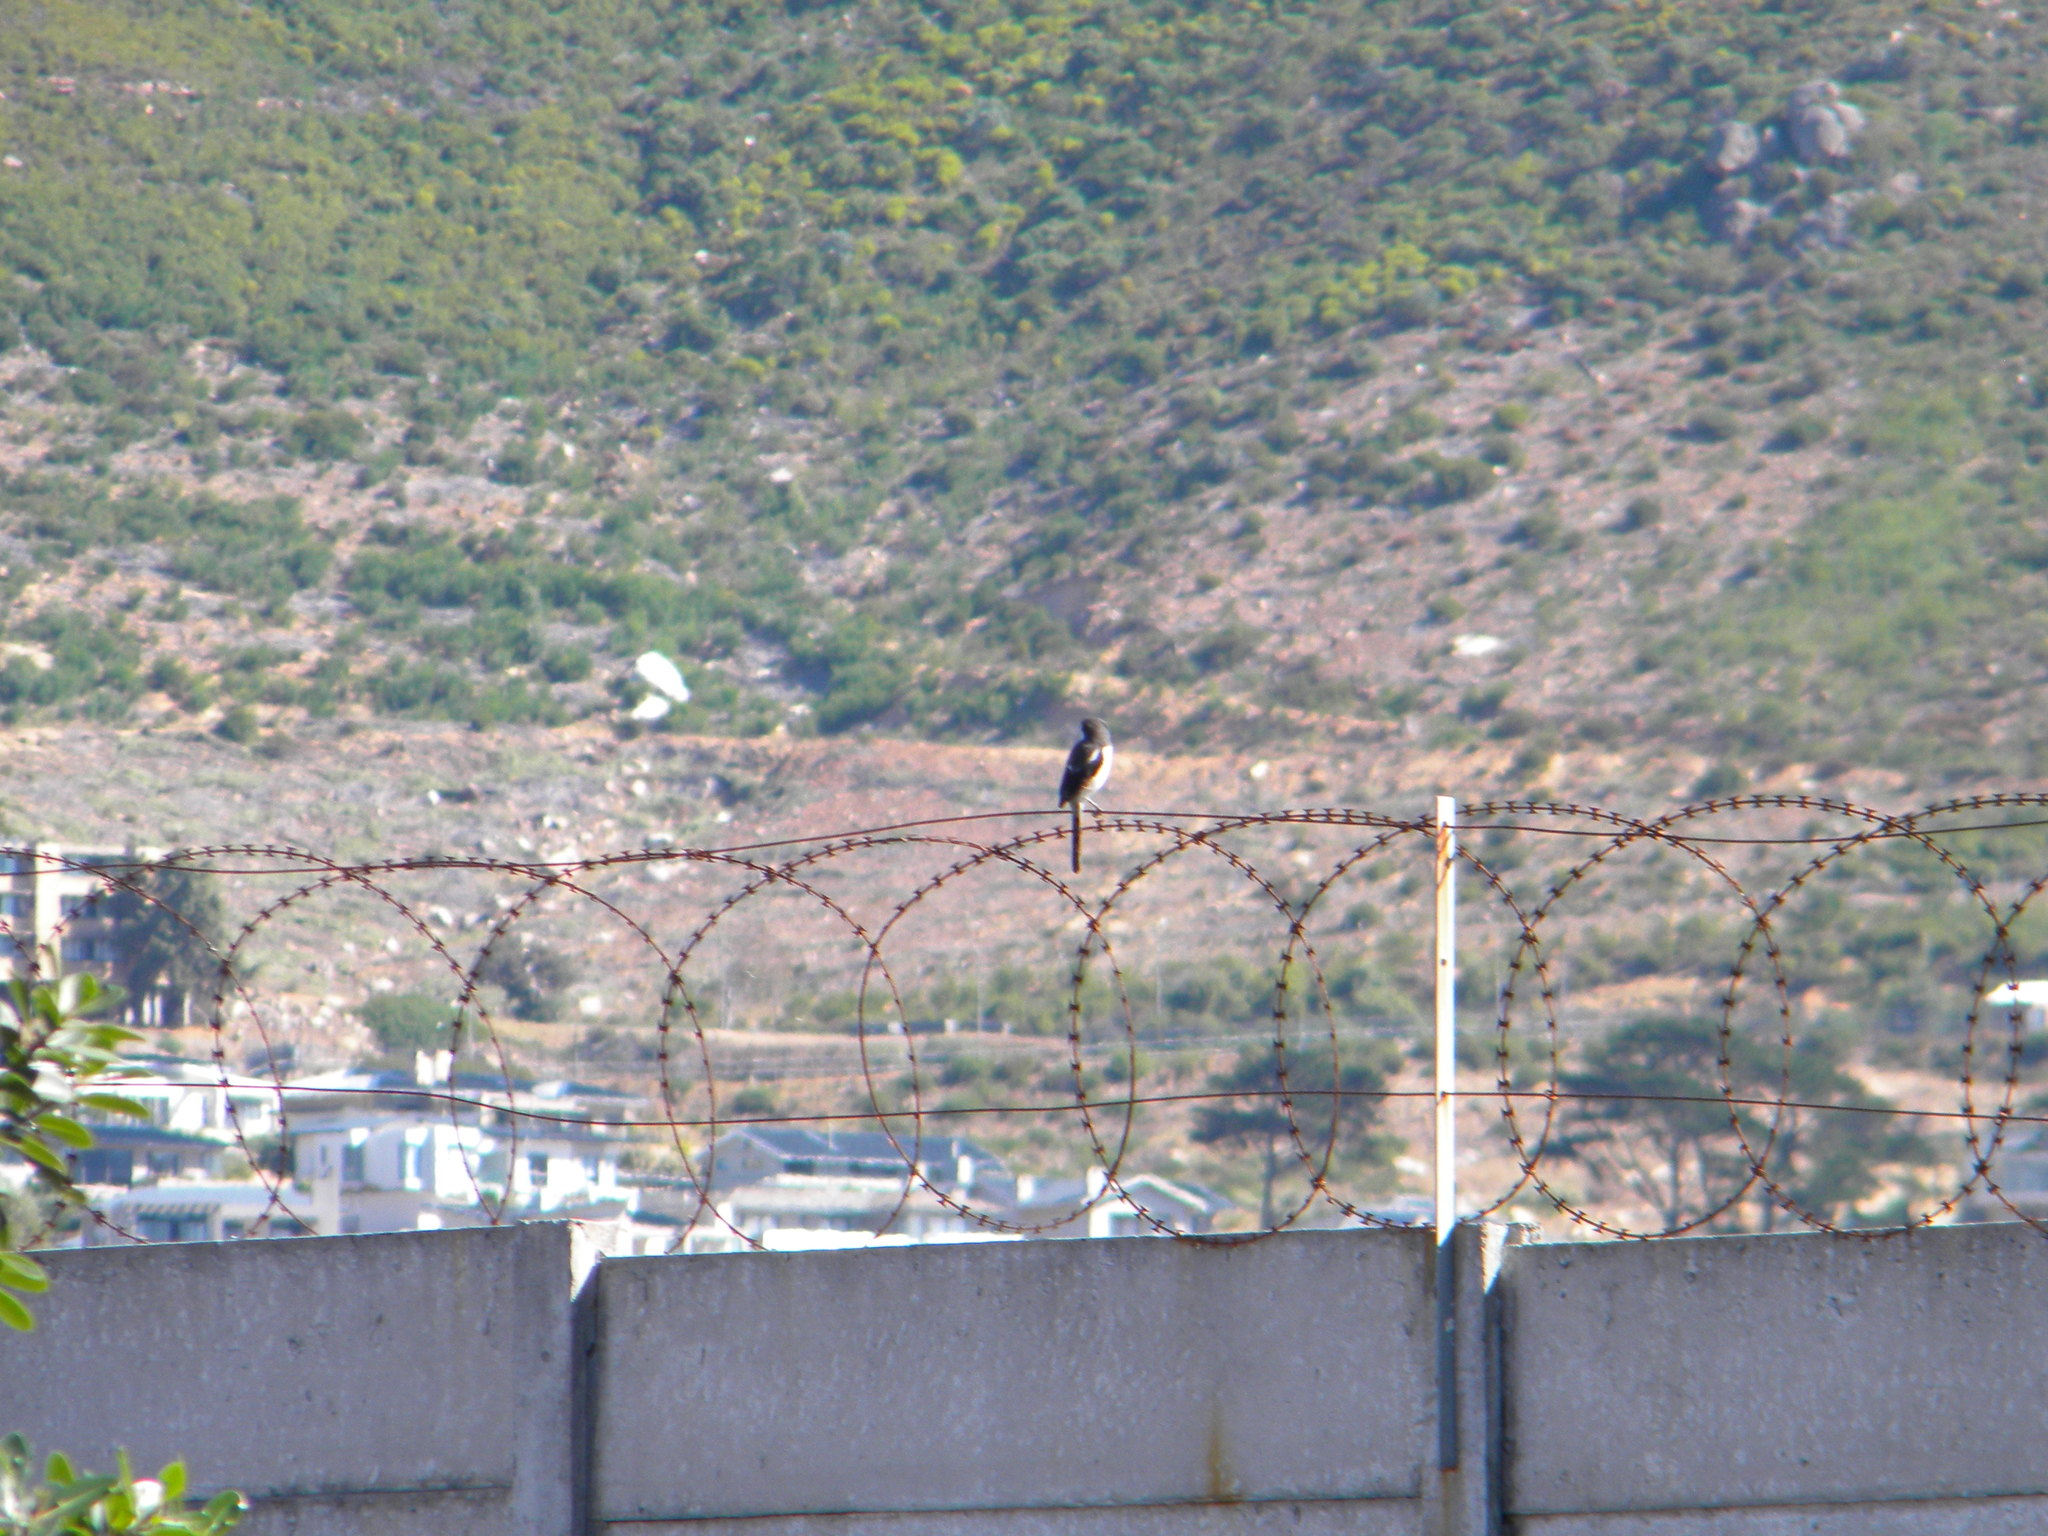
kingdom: Animalia
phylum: Chordata
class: Aves
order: Passeriformes
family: Laniidae
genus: Lanius
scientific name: Lanius collaris
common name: Southern fiscal
